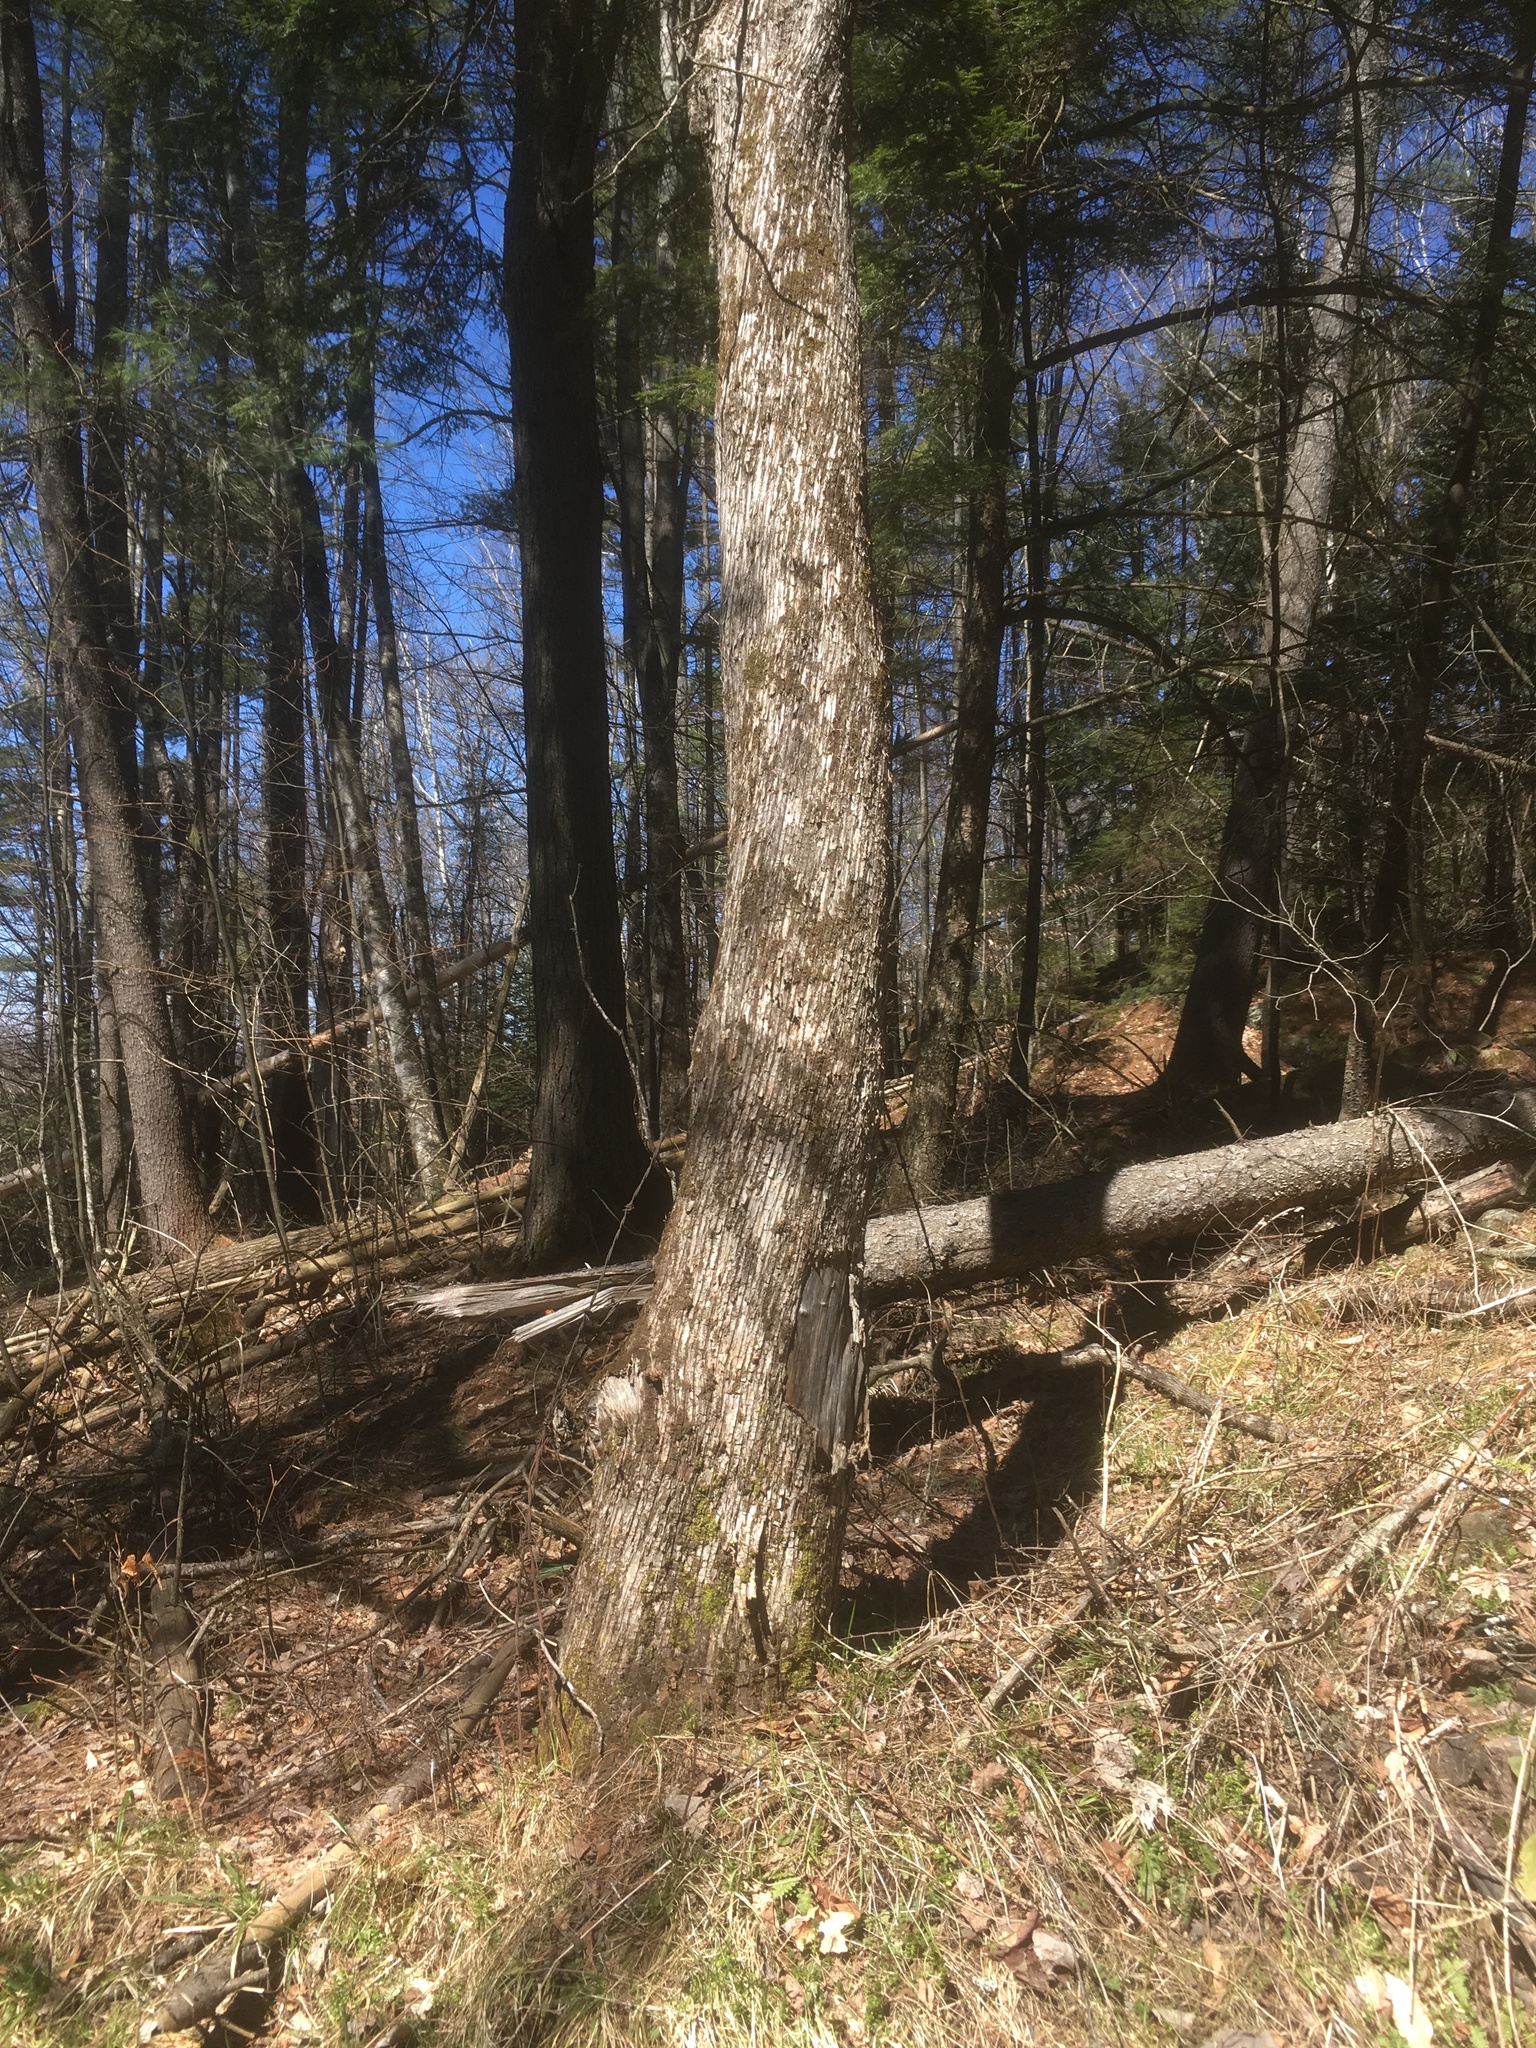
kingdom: Plantae
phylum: Tracheophyta
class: Magnoliopsida
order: Fagales
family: Betulaceae
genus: Ostrya
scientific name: Ostrya virginiana
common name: Ironwood
